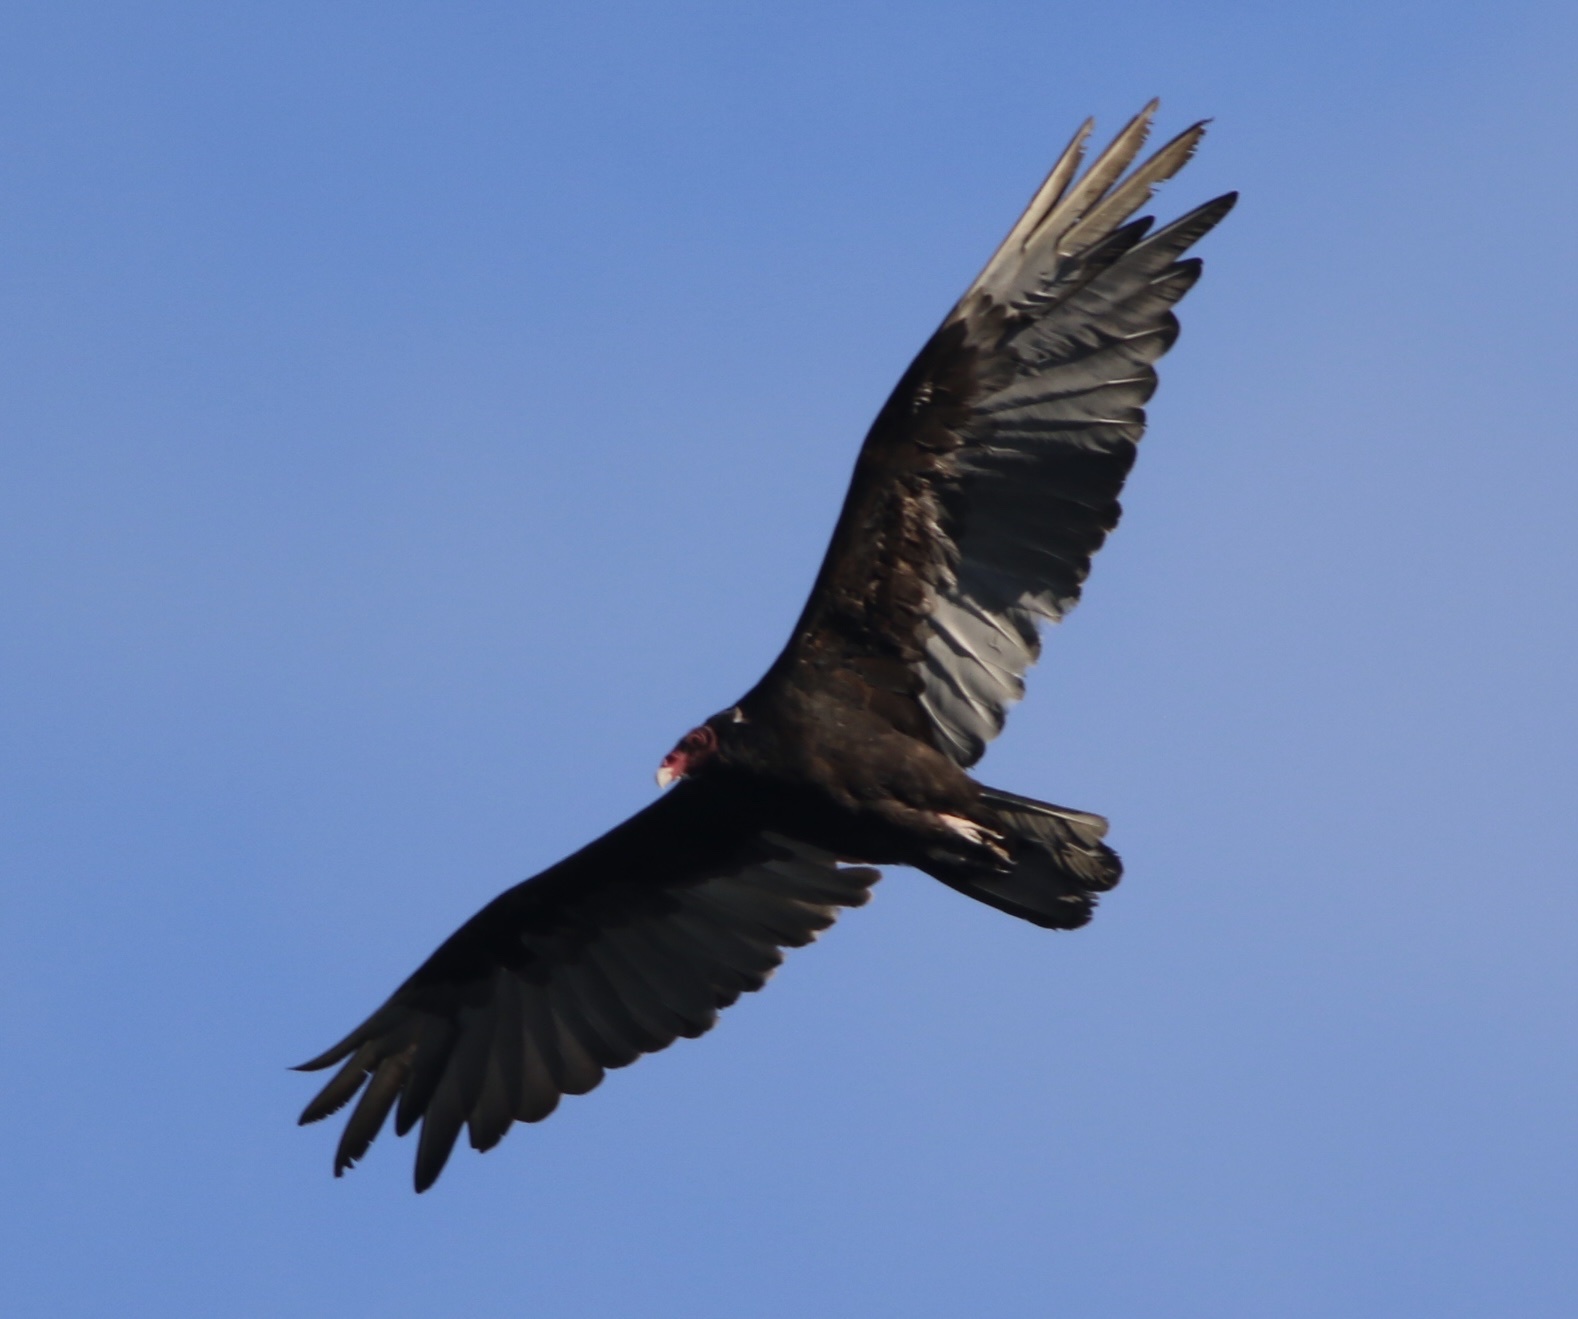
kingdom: Animalia
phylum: Chordata
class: Aves
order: Accipitriformes
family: Cathartidae
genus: Cathartes
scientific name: Cathartes aura
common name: Turkey vulture
